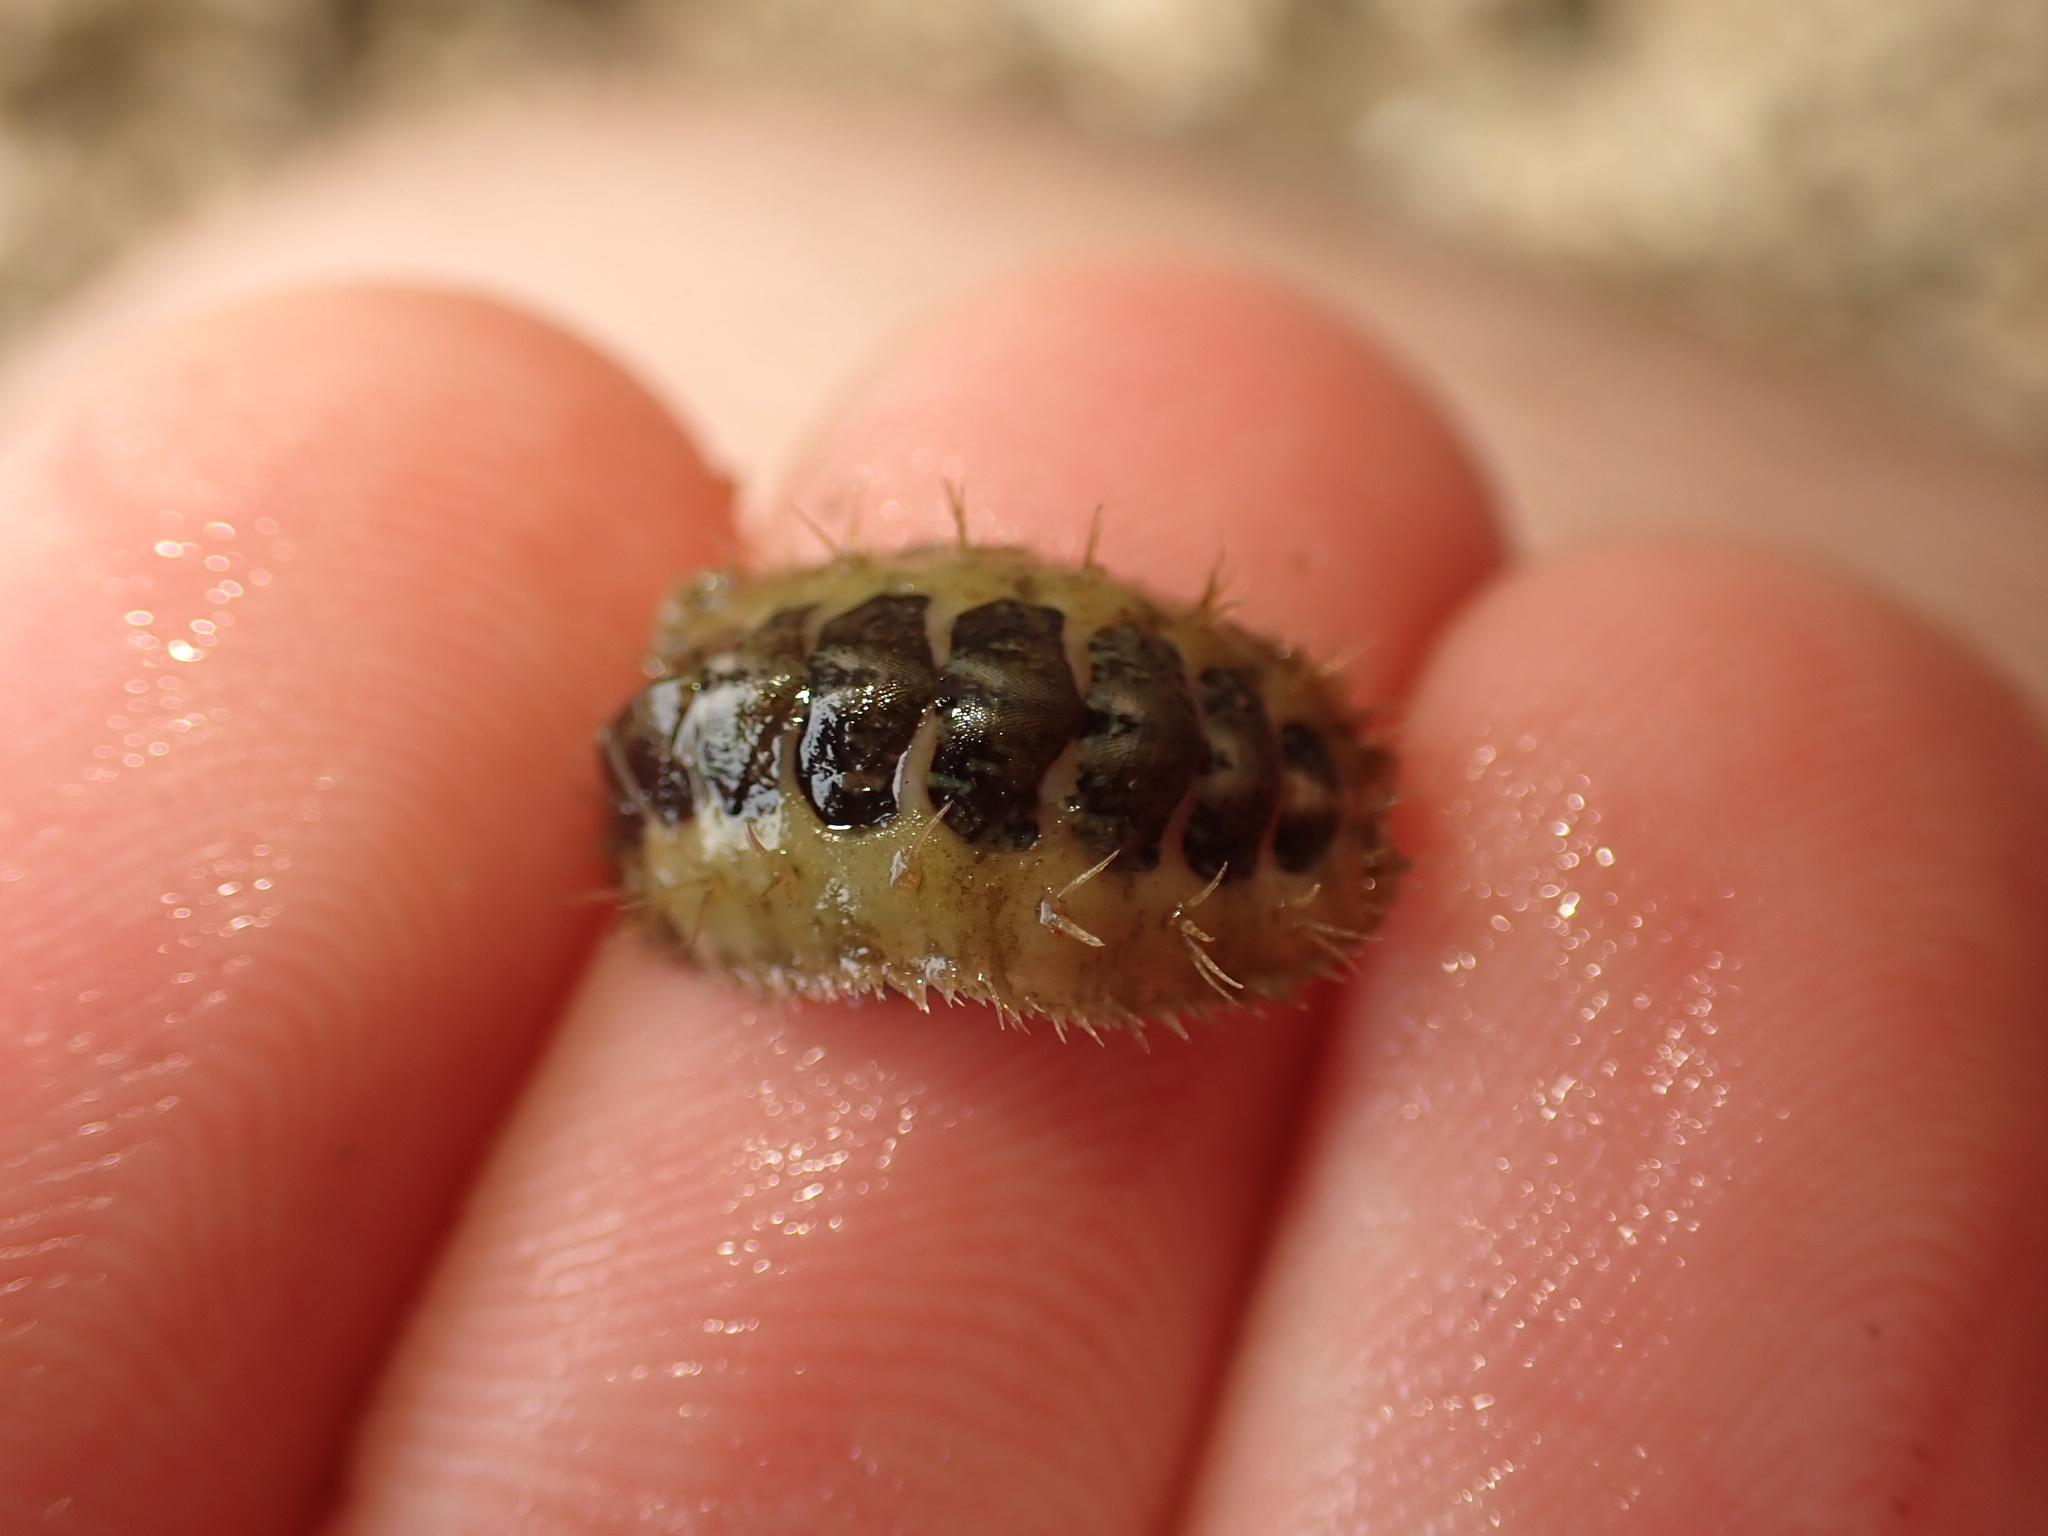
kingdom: Animalia
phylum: Mollusca
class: Polyplacophora
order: Chitonida
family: Mopaliidae
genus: Plaxiphora
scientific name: Plaxiphora caelata
